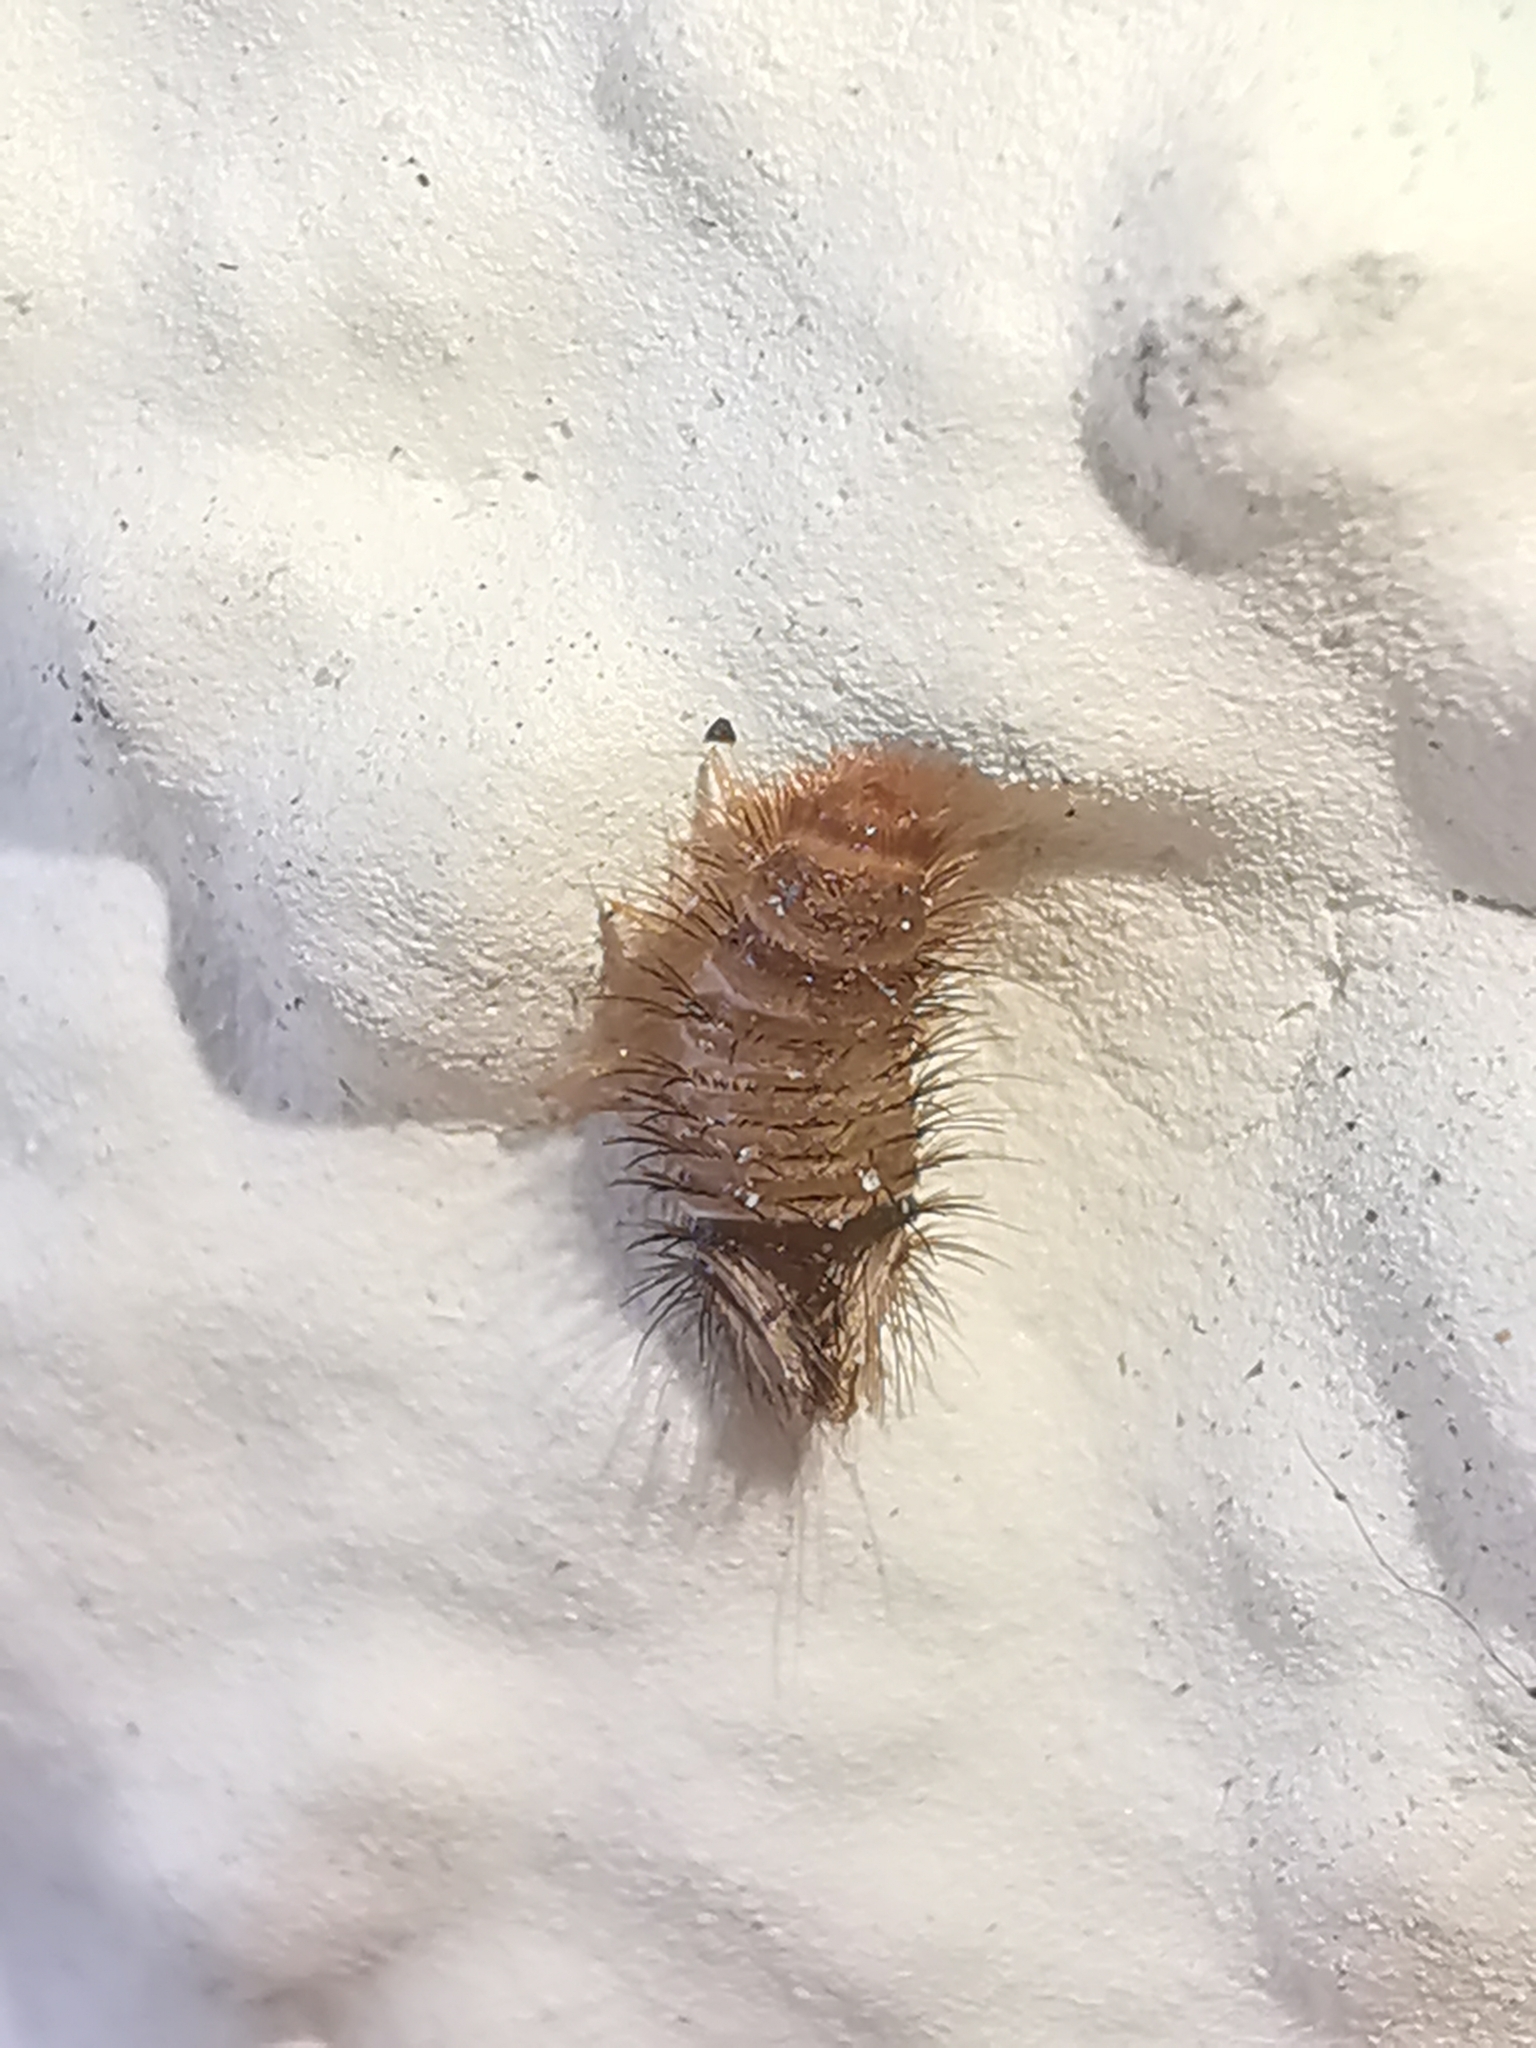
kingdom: Animalia
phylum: Arthropoda
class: Insecta
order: Coleoptera
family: Dermestidae
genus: Anthrenus
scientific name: Anthrenus verbasci
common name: Varied carpet beetle
